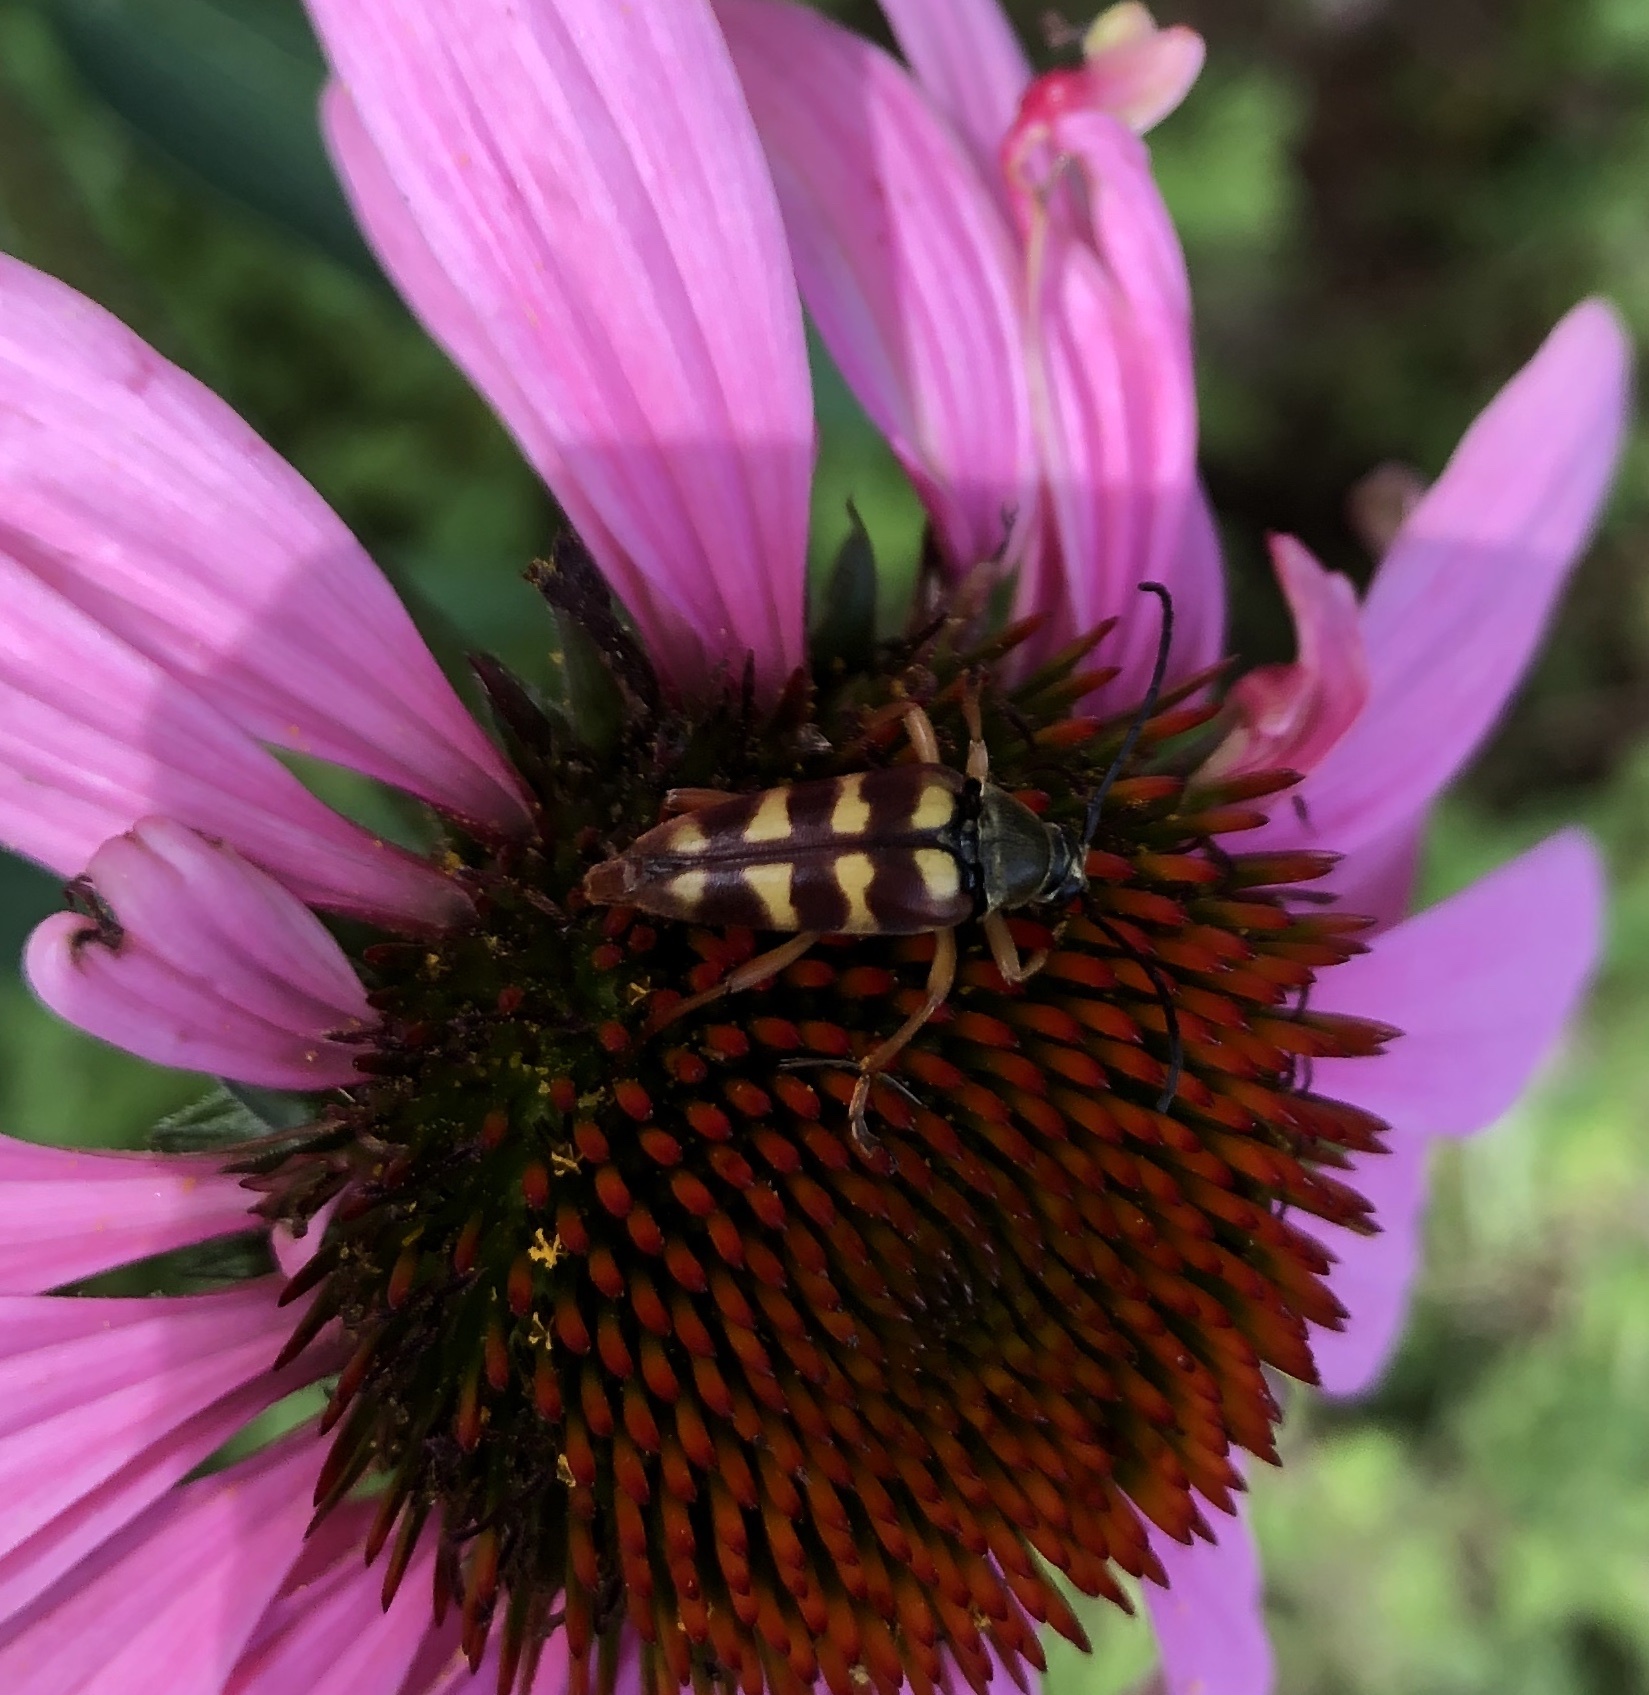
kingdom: Animalia
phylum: Arthropoda
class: Insecta
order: Coleoptera
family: Cerambycidae
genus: Typocerus
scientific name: Typocerus velutinus
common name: Banded longhorn beetle
